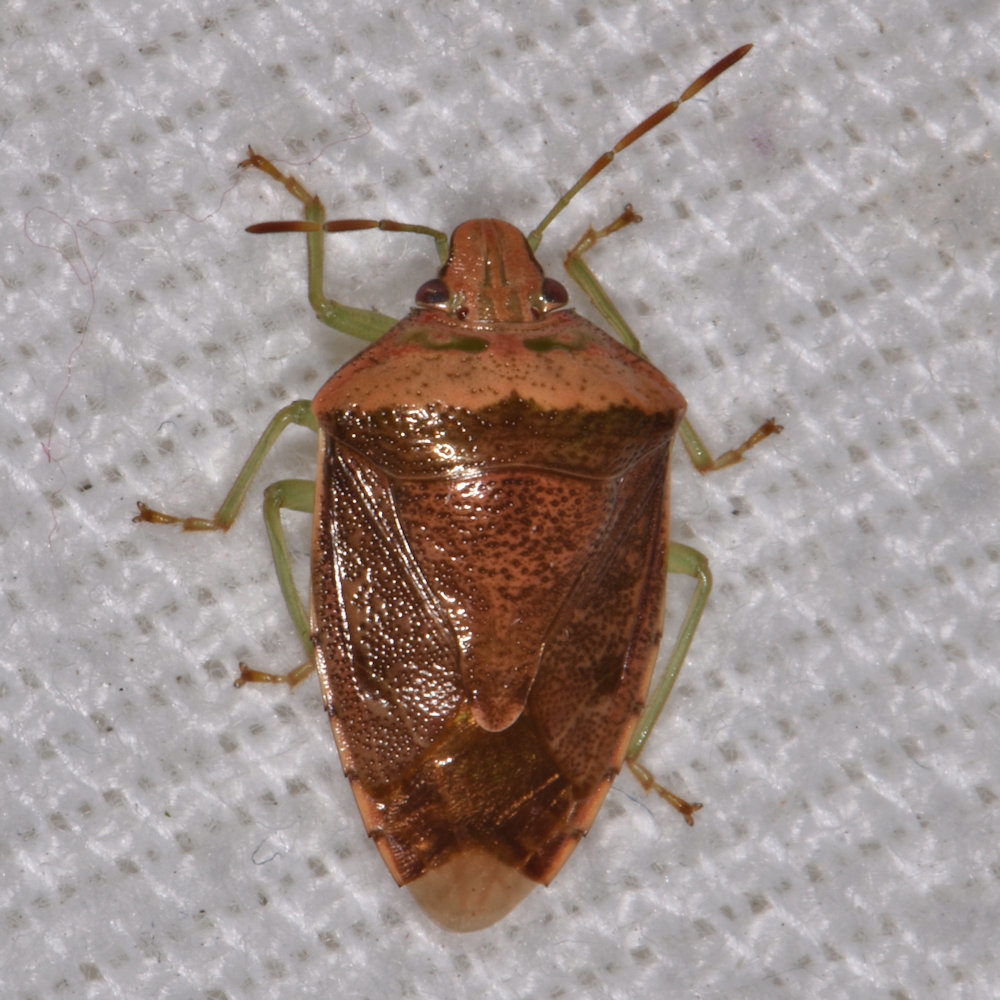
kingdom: Animalia
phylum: Arthropoda
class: Insecta
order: Hemiptera
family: Pentatomidae
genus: Banasa
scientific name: Banasa calva
